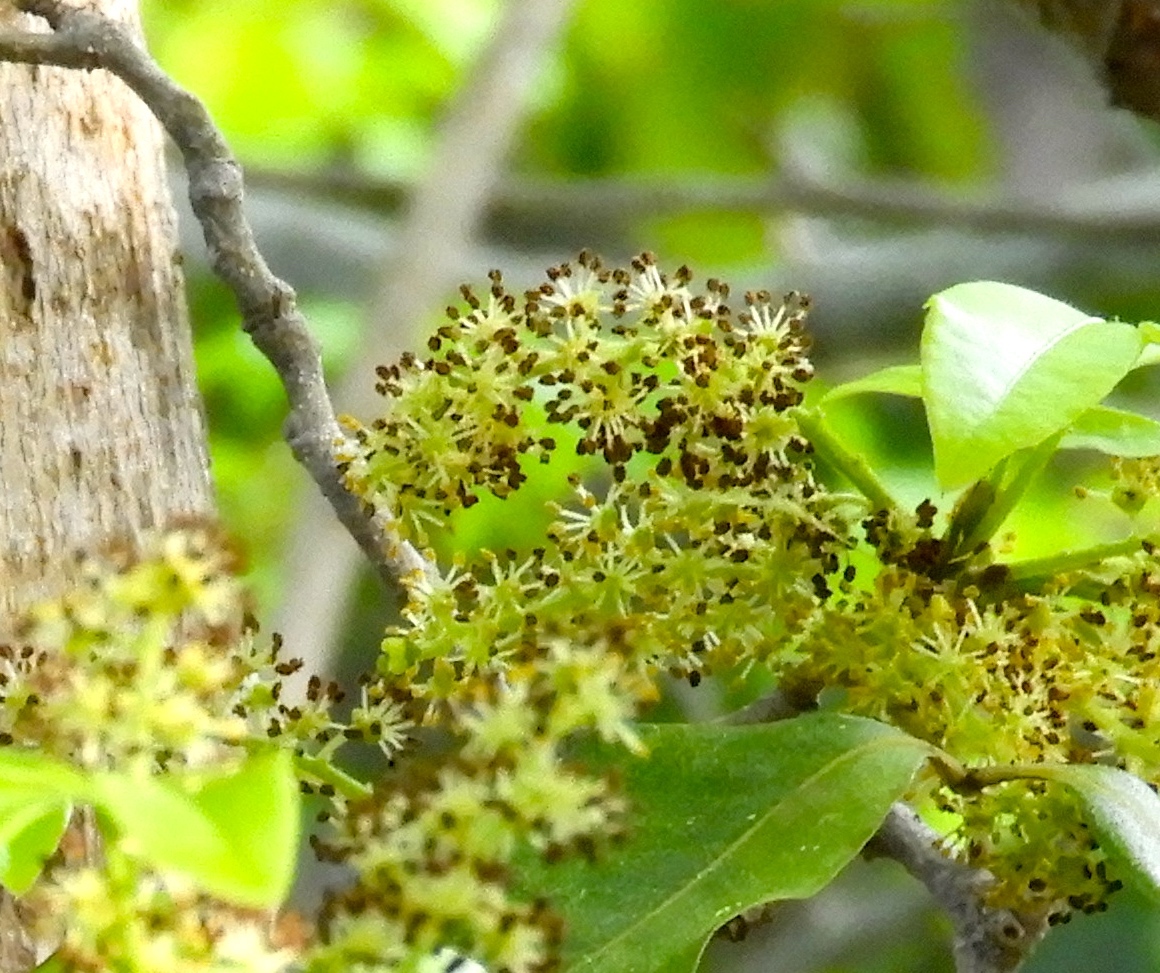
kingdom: Plantae
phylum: Tracheophyta
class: Magnoliopsida
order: Malpighiales
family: Picrodendraceae
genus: Piranhea
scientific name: Piranhea mexicana
